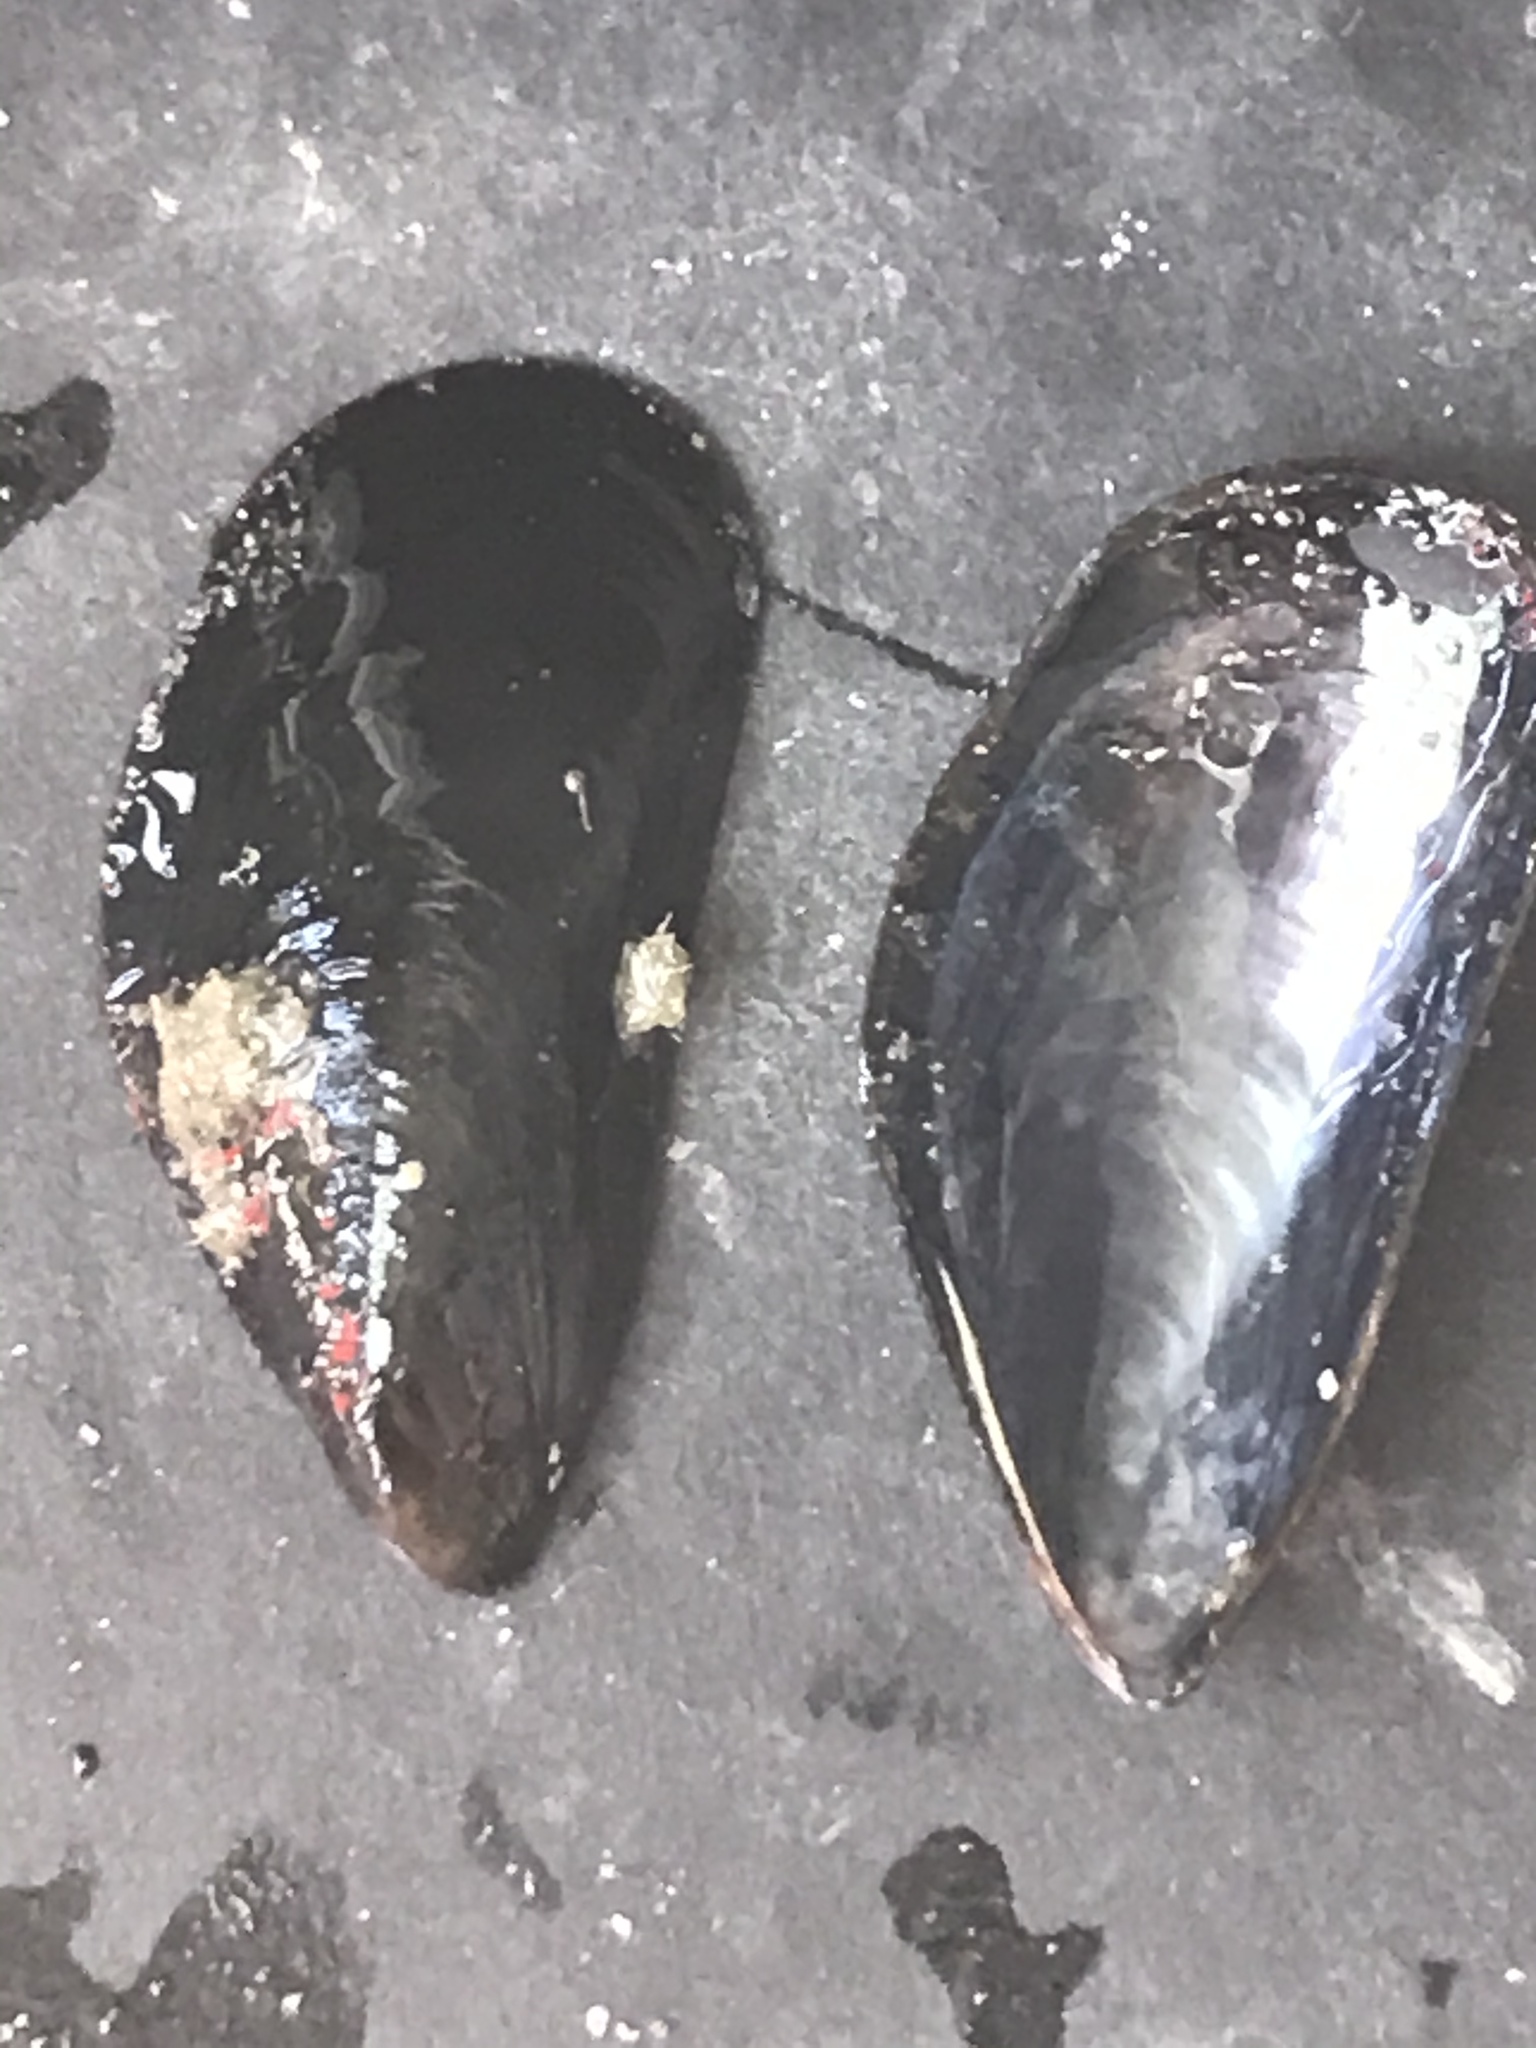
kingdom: Animalia
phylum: Mollusca
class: Bivalvia
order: Mytilida
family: Mytilidae
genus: Mytilus
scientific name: Mytilus
